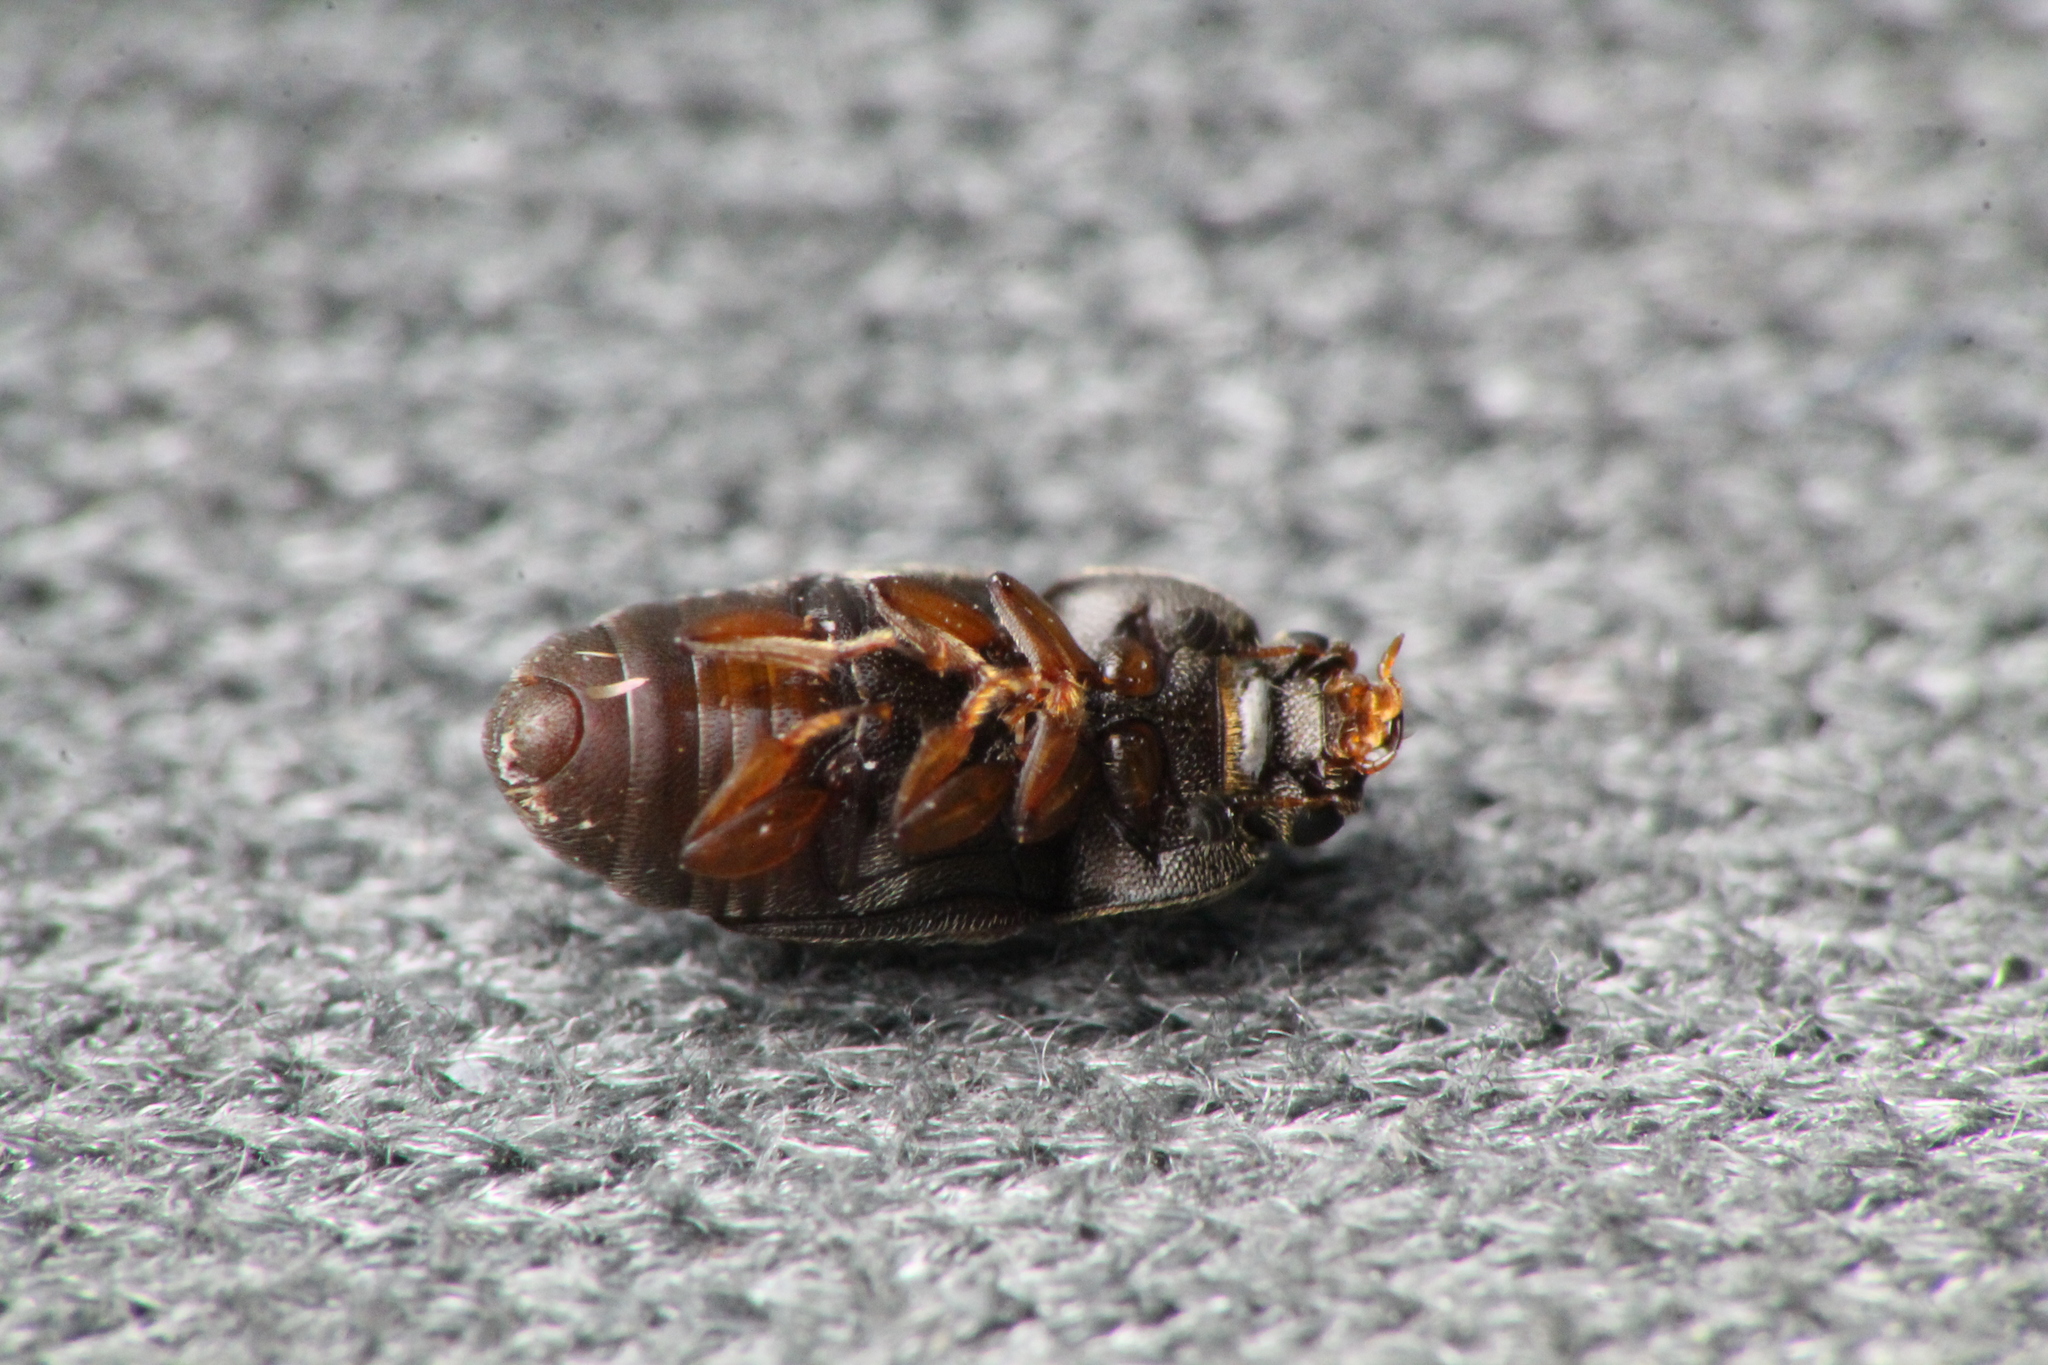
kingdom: Animalia
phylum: Arthropoda
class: Insecta
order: Coleoptera
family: Nitidulidae
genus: Carpophilus
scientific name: Carpophilus hemipterus
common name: Dried fruit beetle
